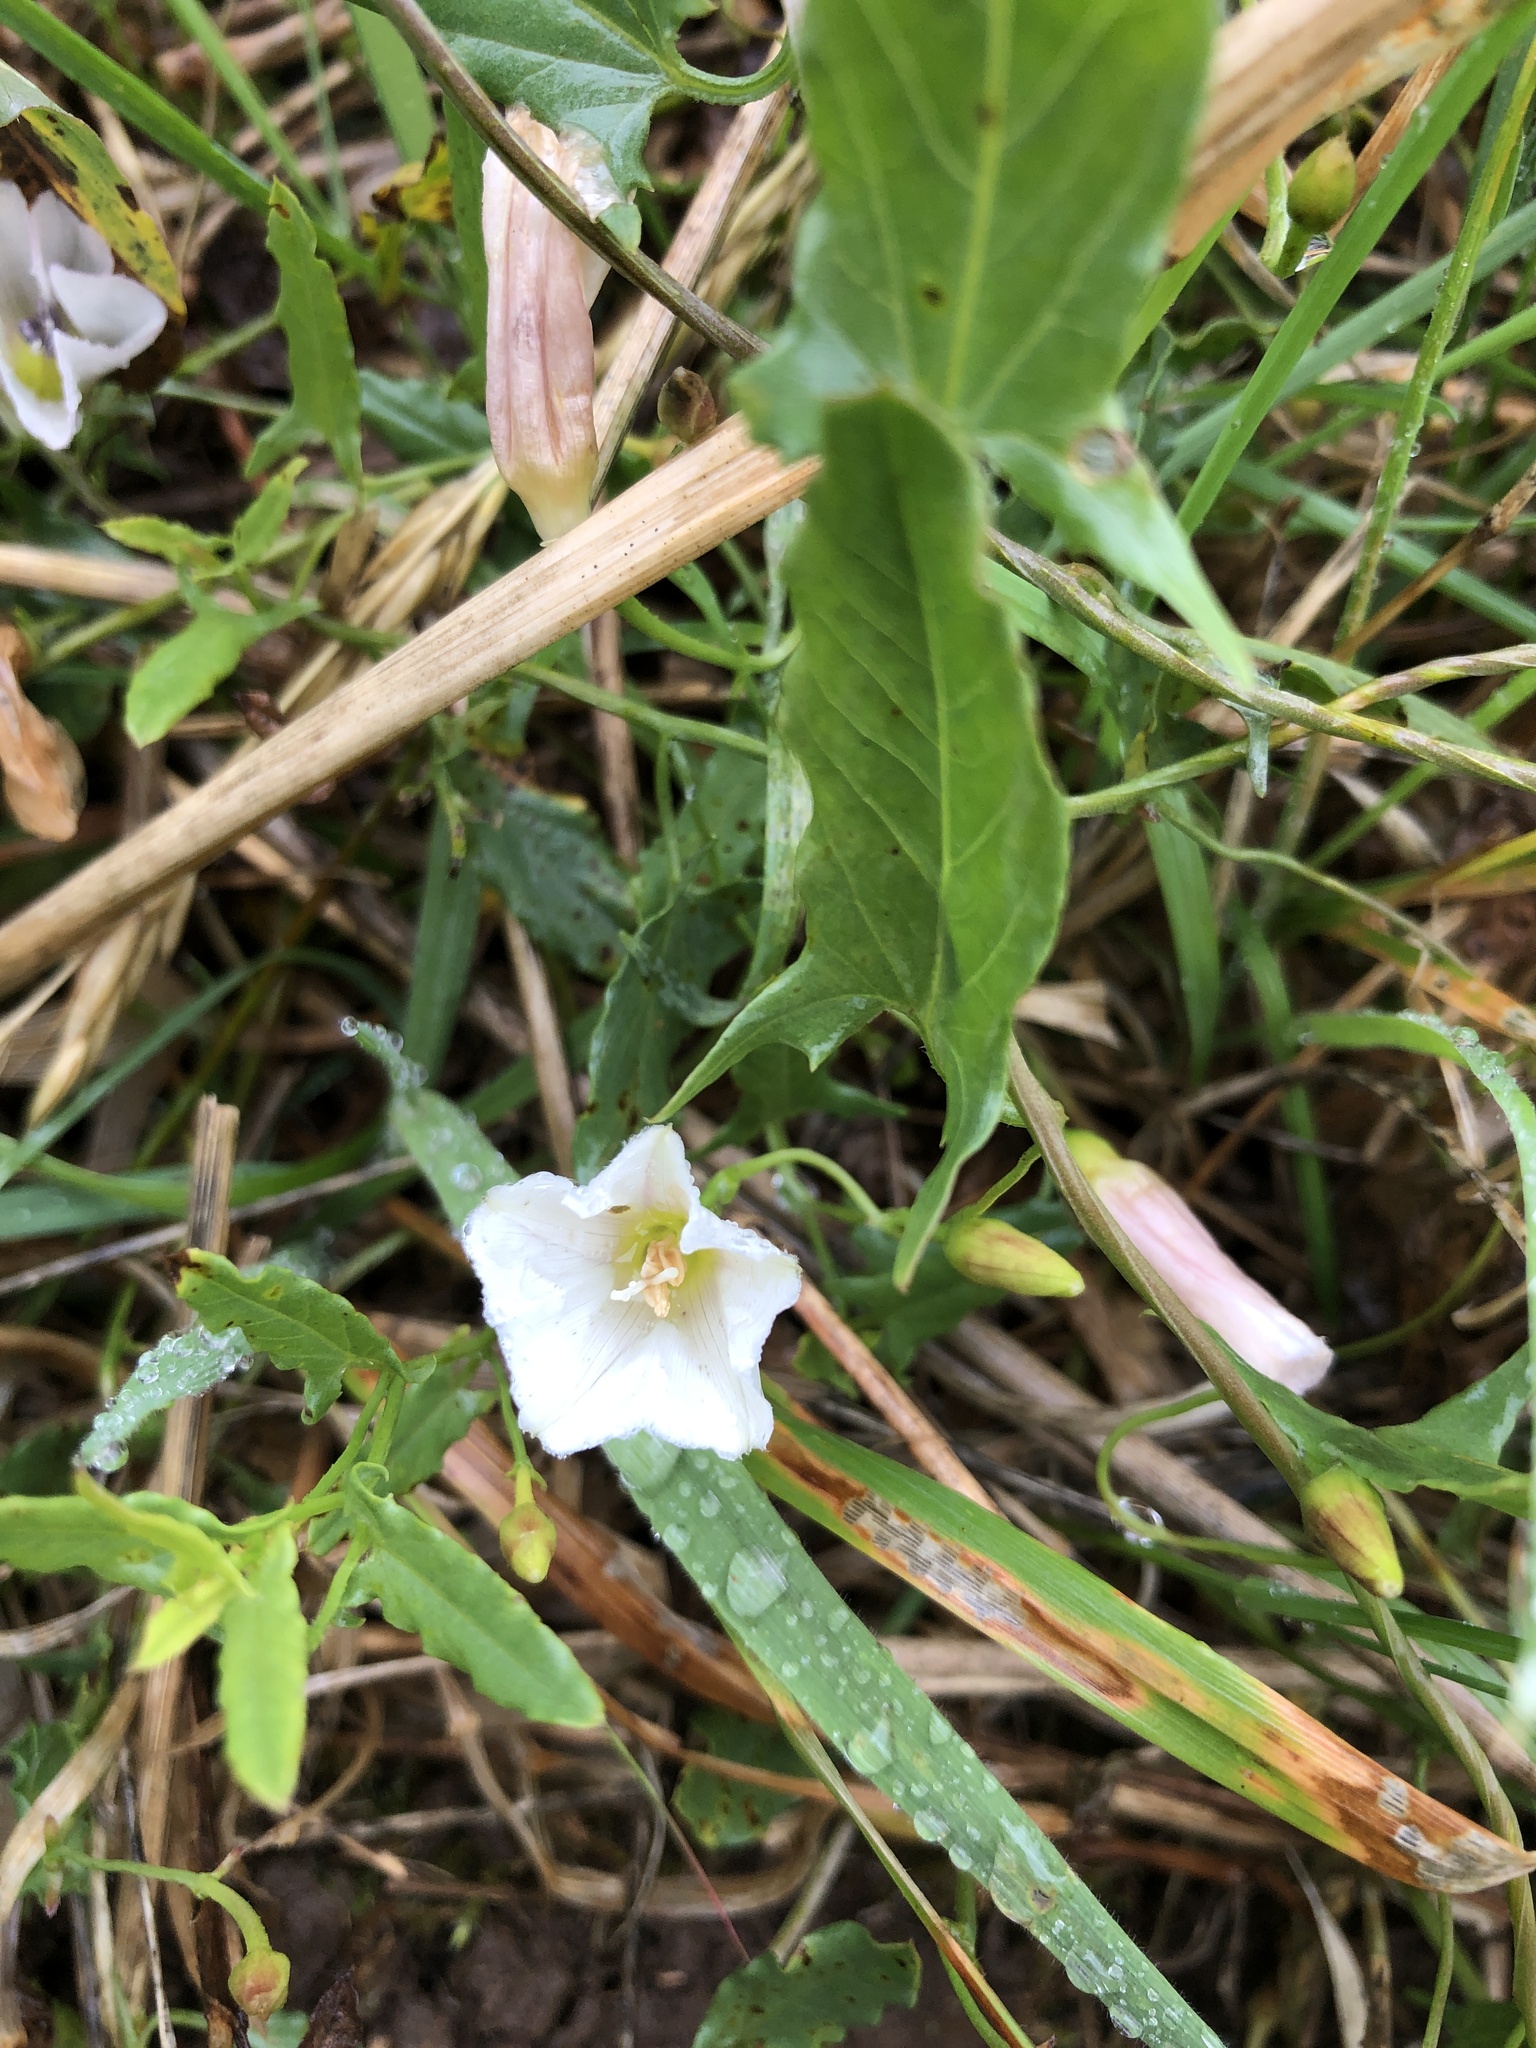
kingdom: Plantae
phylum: Tracheophyta
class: Magnoliopsida
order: Solanales
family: Convolvulaceae
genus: Convolvulus
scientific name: Convolvulus arvensis
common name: Field bindweed
